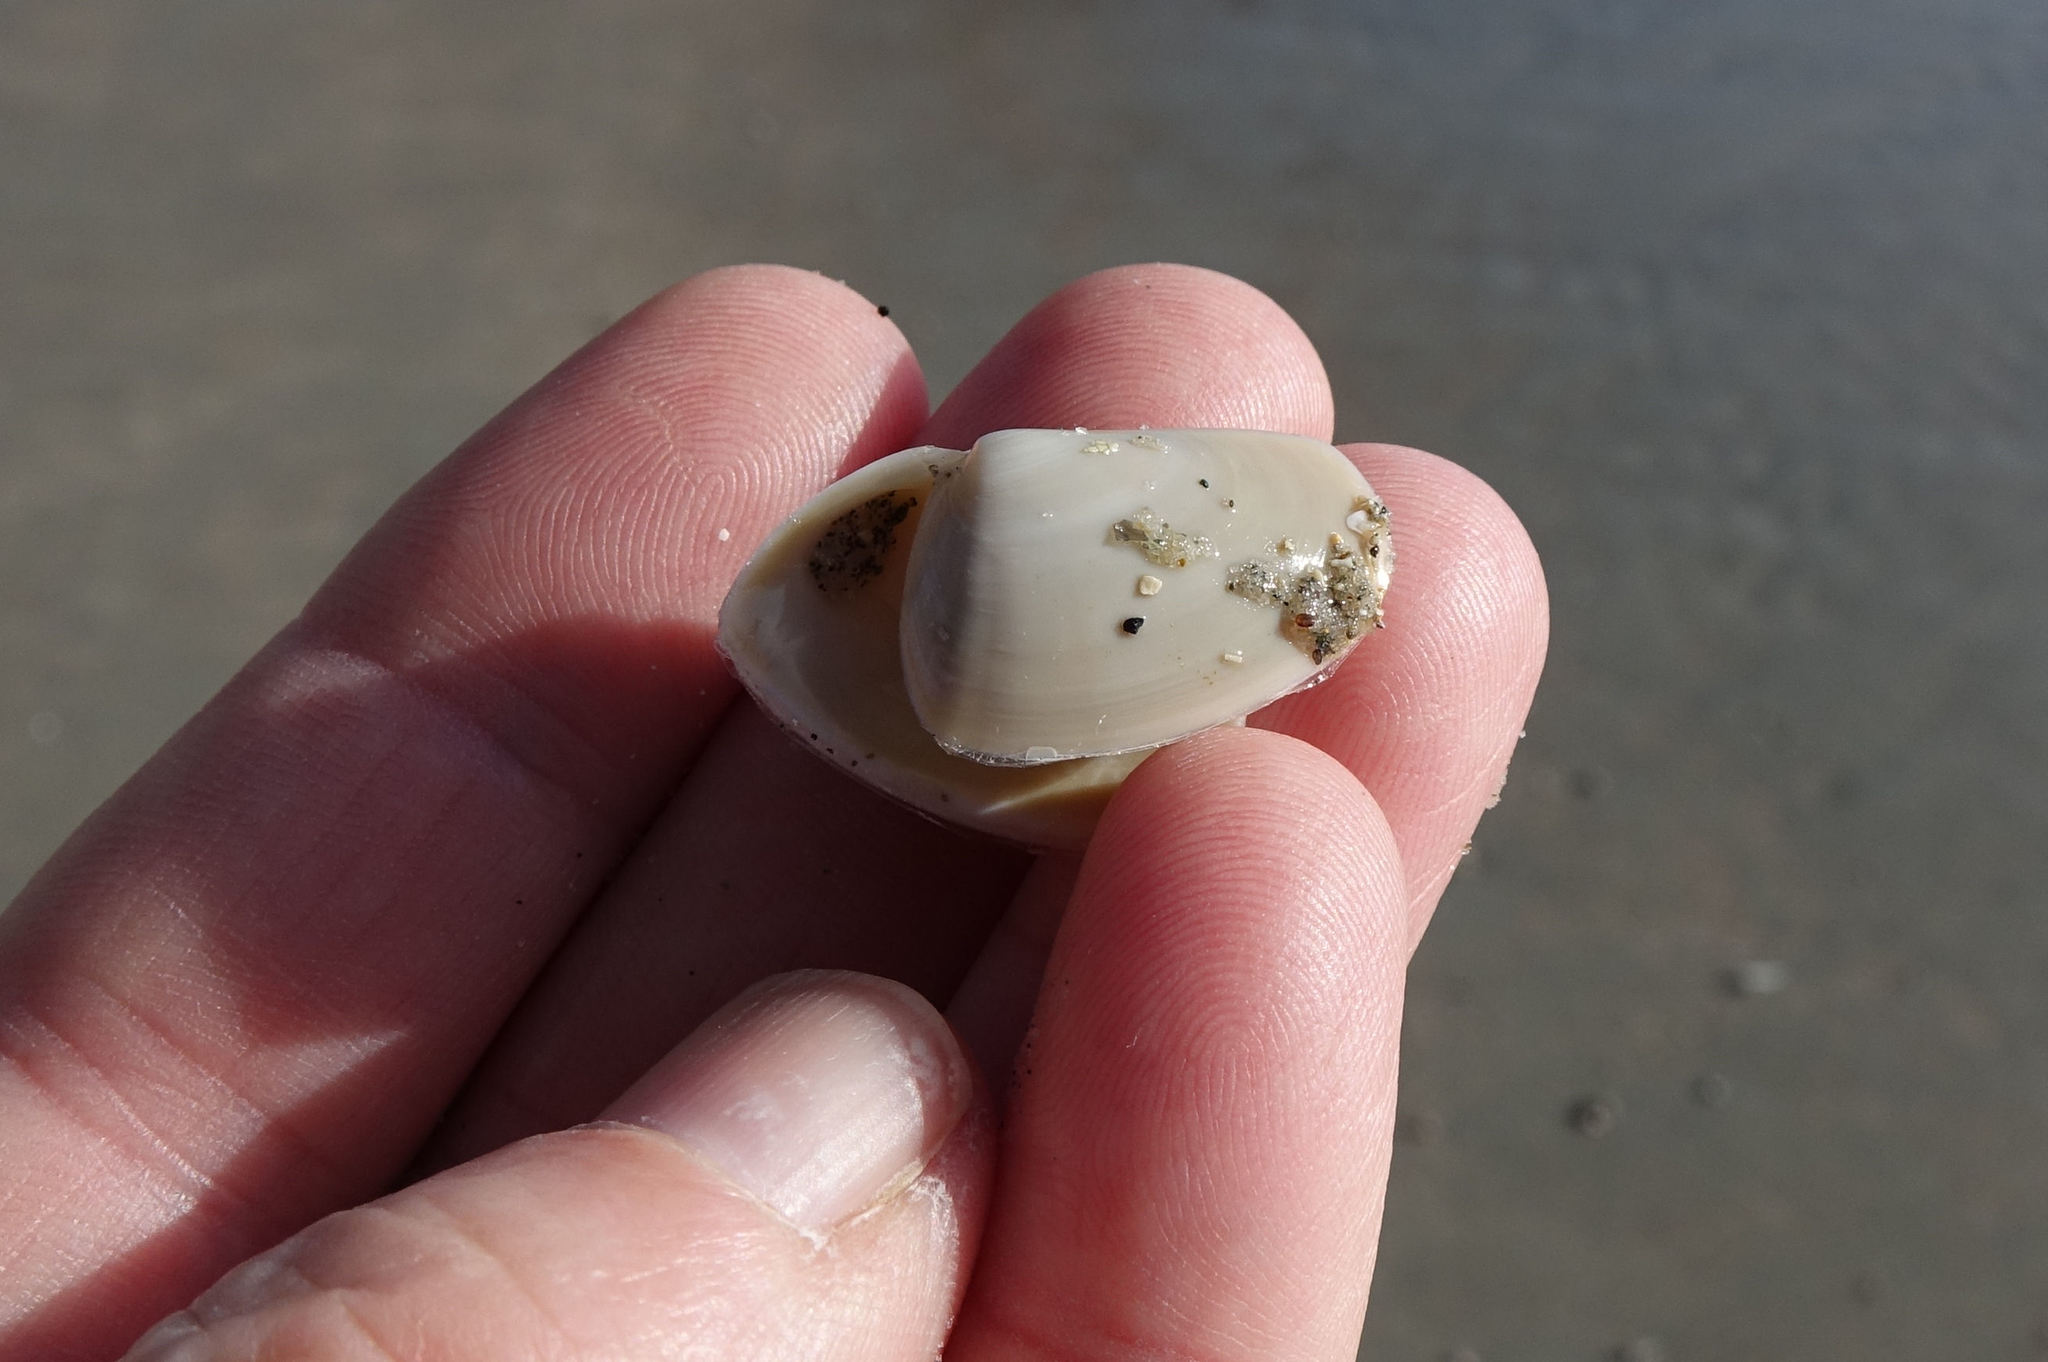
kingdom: Animalia
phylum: Mollusca
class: Bivalvia
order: Venerida
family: Mesodesmatidae
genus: Paphies
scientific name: Paphies subtriangulata
